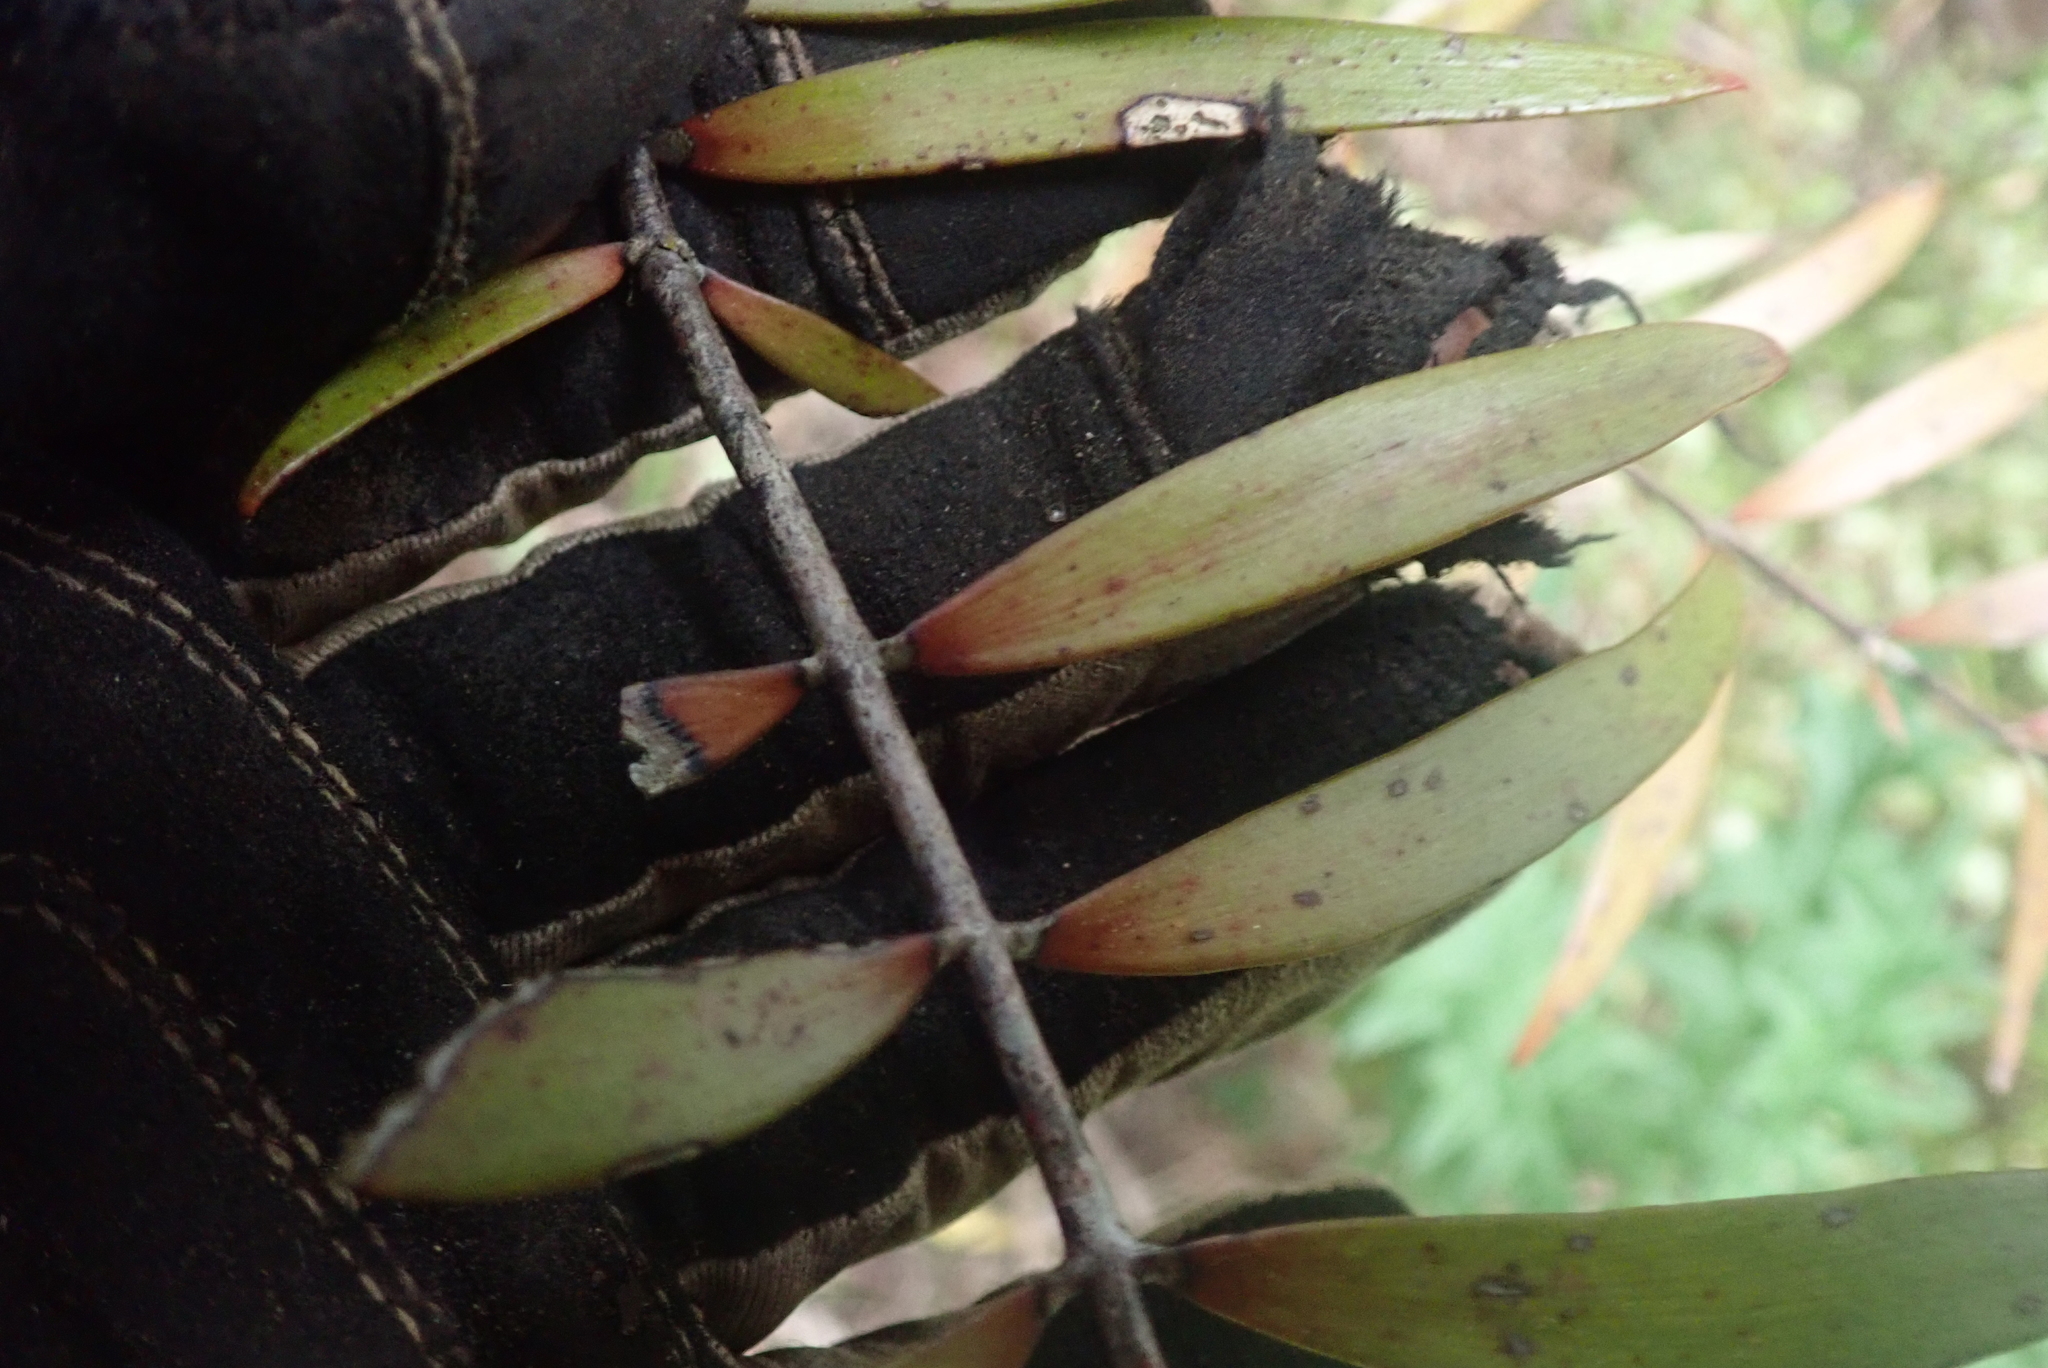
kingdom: Plantae
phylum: Tracheophyta
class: Pinopsida
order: Pinales
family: Araucariaceae
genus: Agathis
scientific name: Agathis australis
